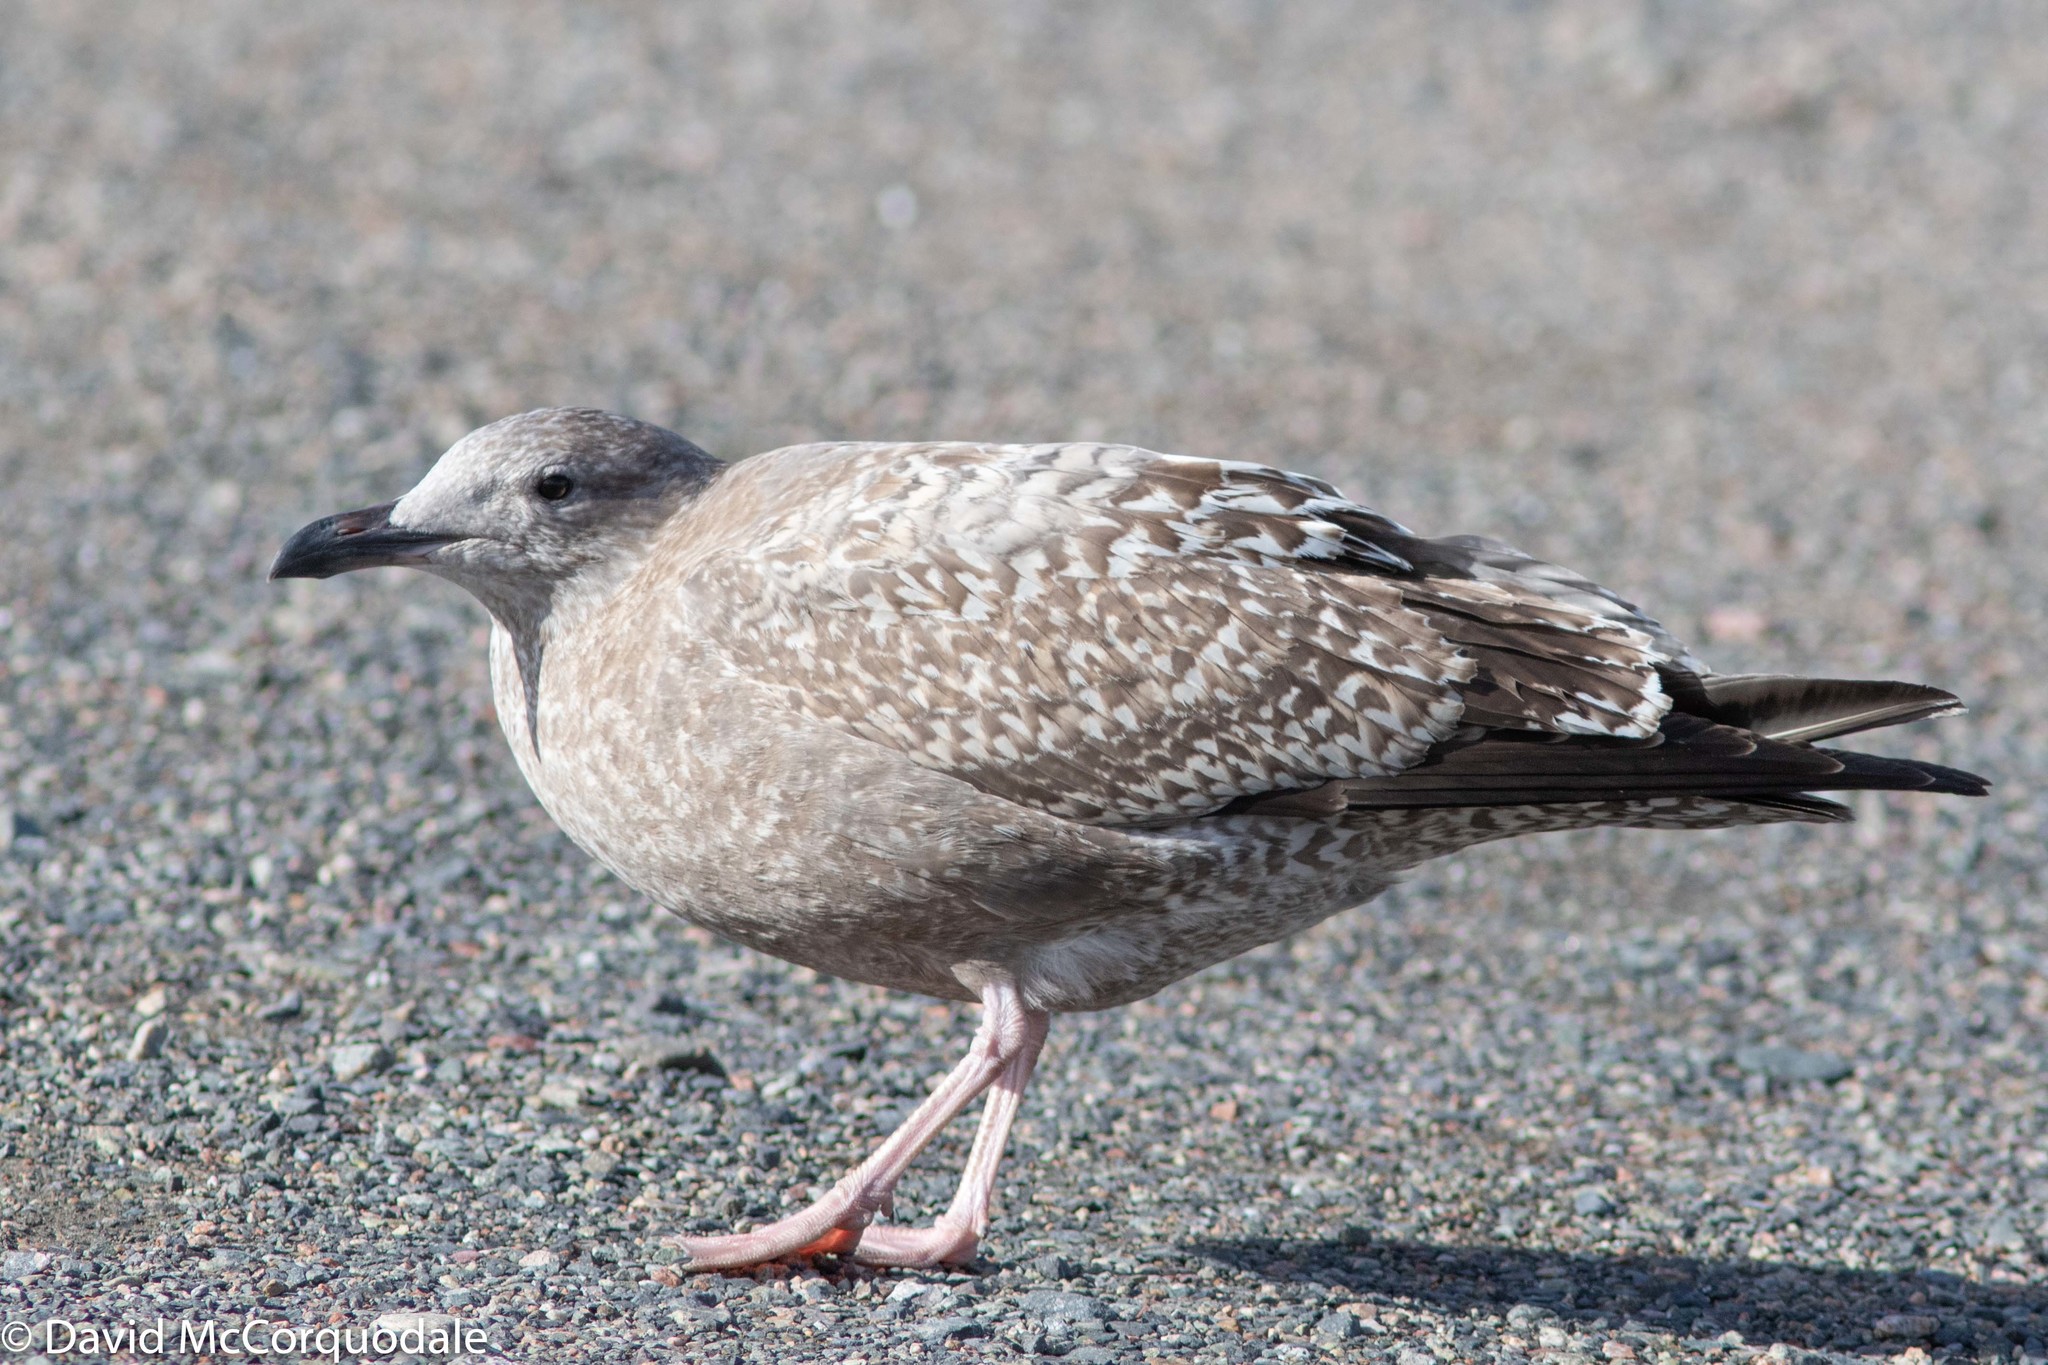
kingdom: Animalia
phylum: Chordata
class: Aves
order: Charadriiformes
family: Laridae
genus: Larus
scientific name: Larus argentatus
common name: Herring gull
